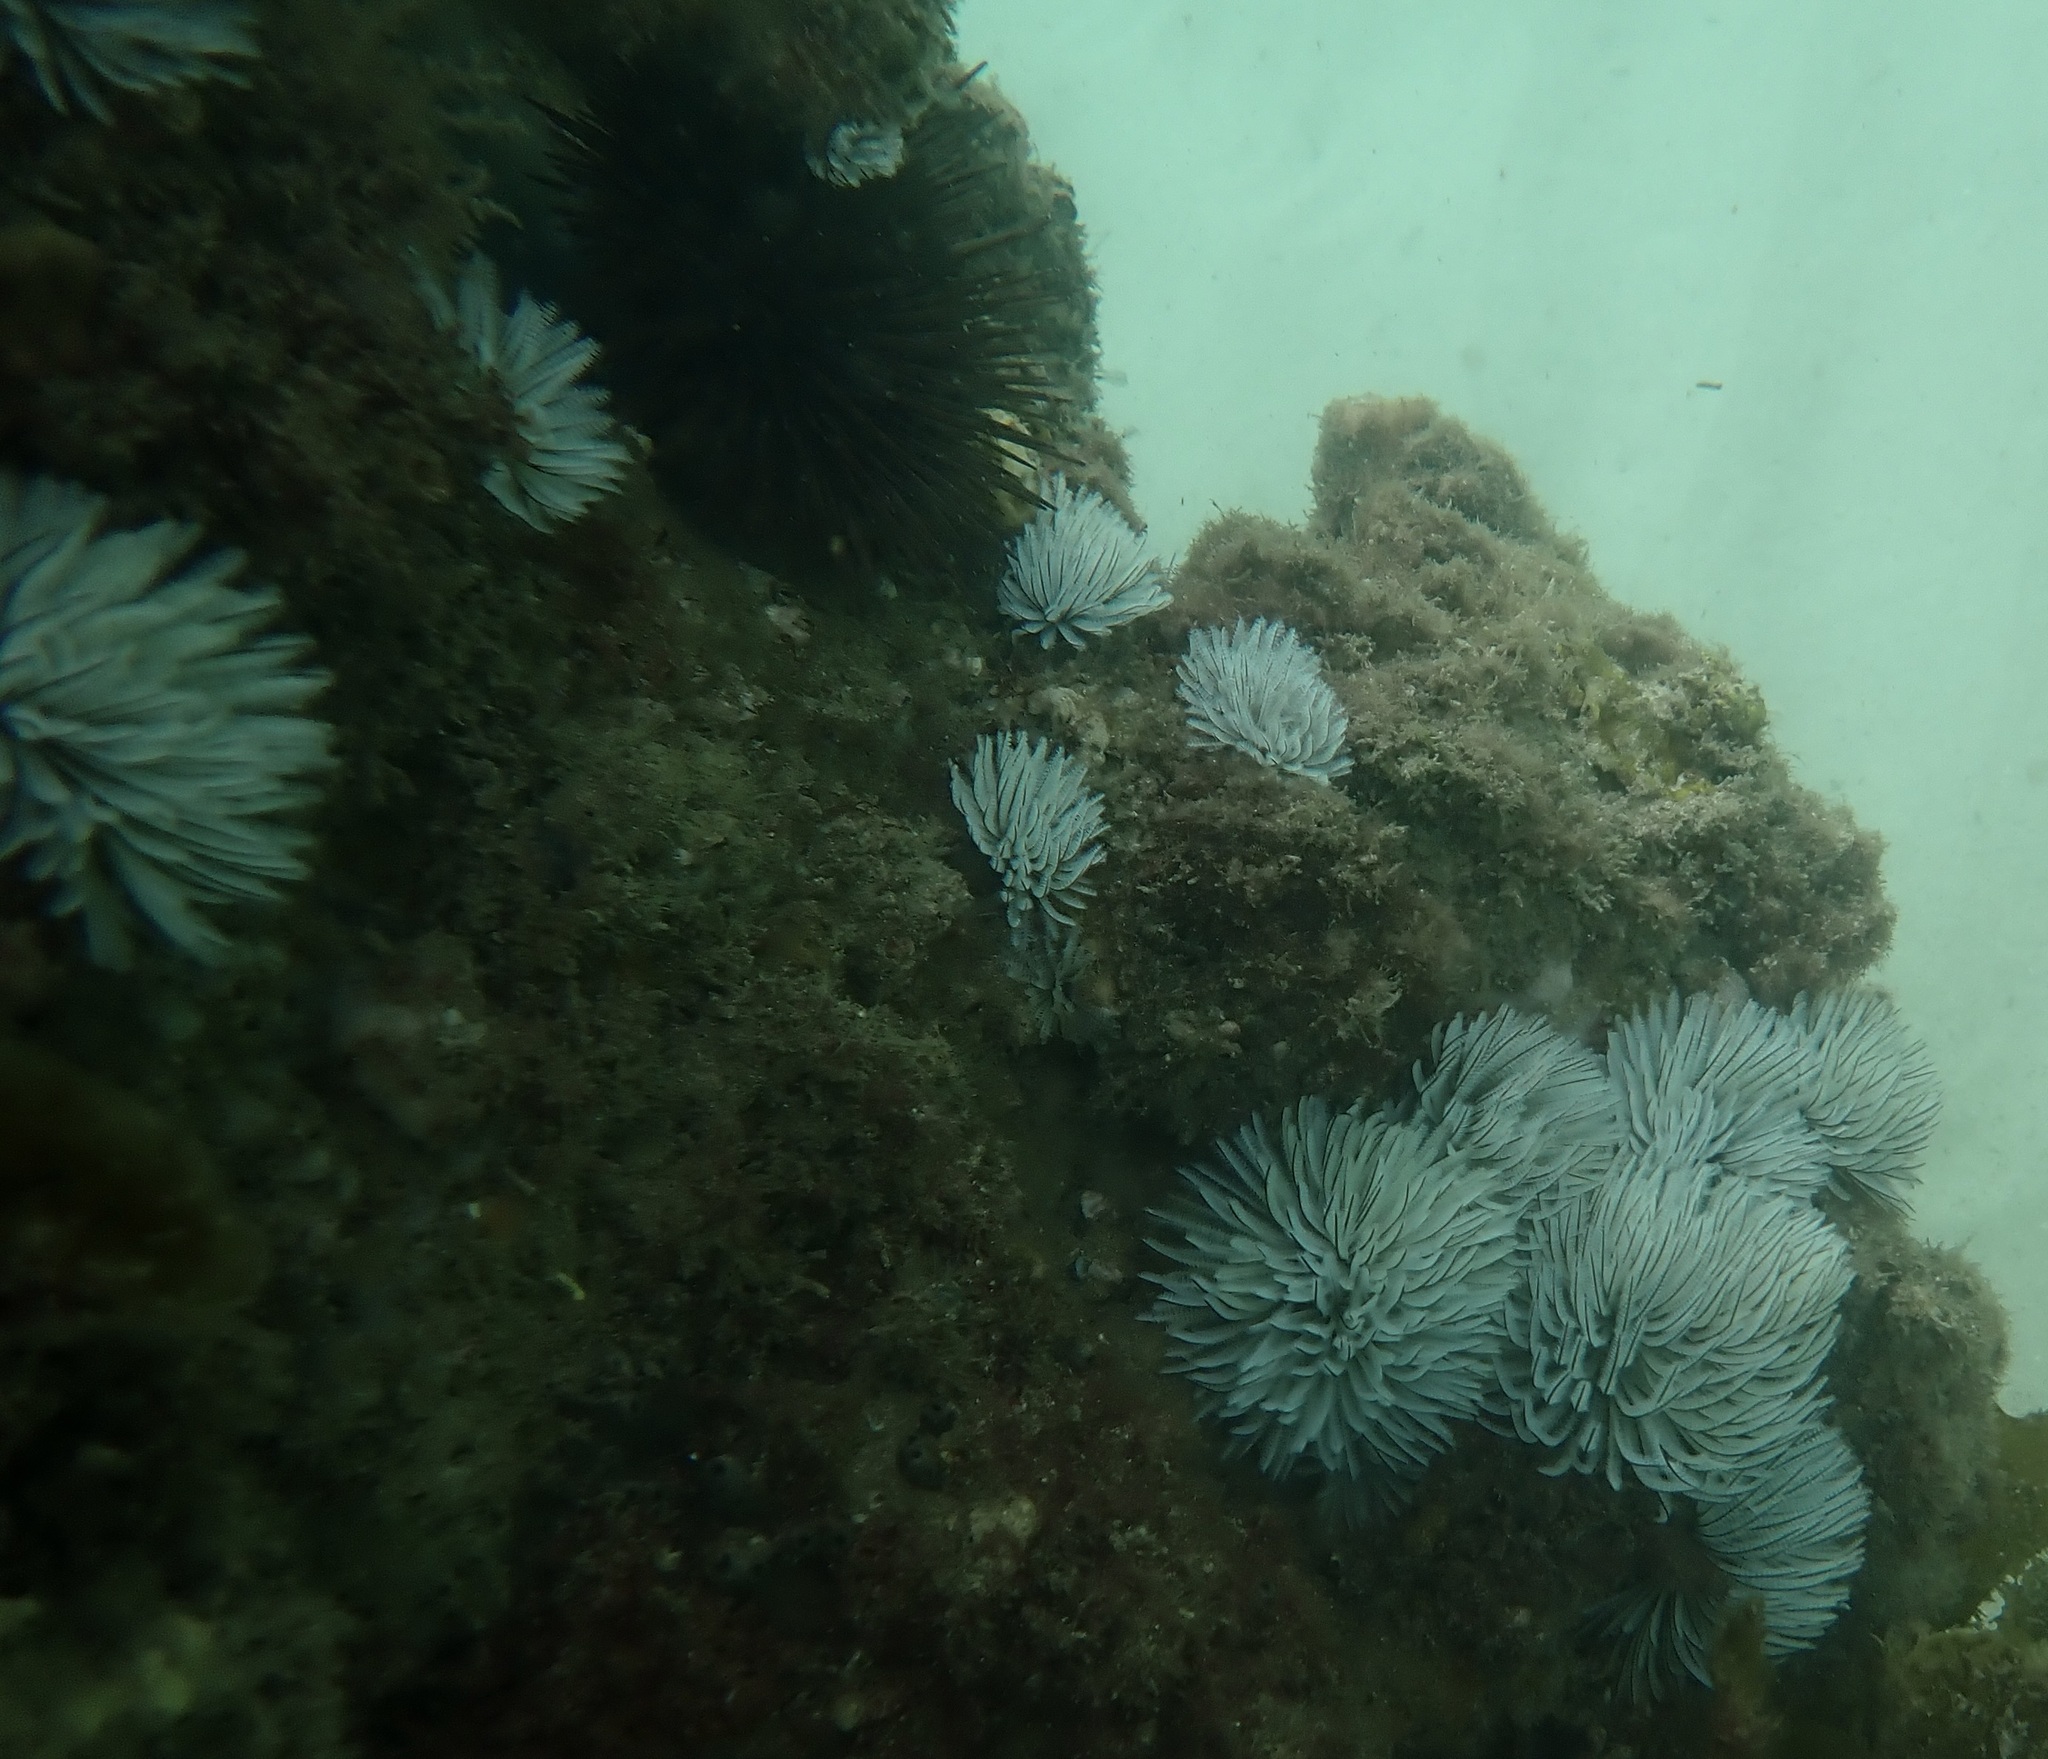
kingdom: Animalia
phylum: Annelida
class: Polychaeta
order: Sabellida
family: Sabellidae
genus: Sabellastarte
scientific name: Sabellastarte australiensis
